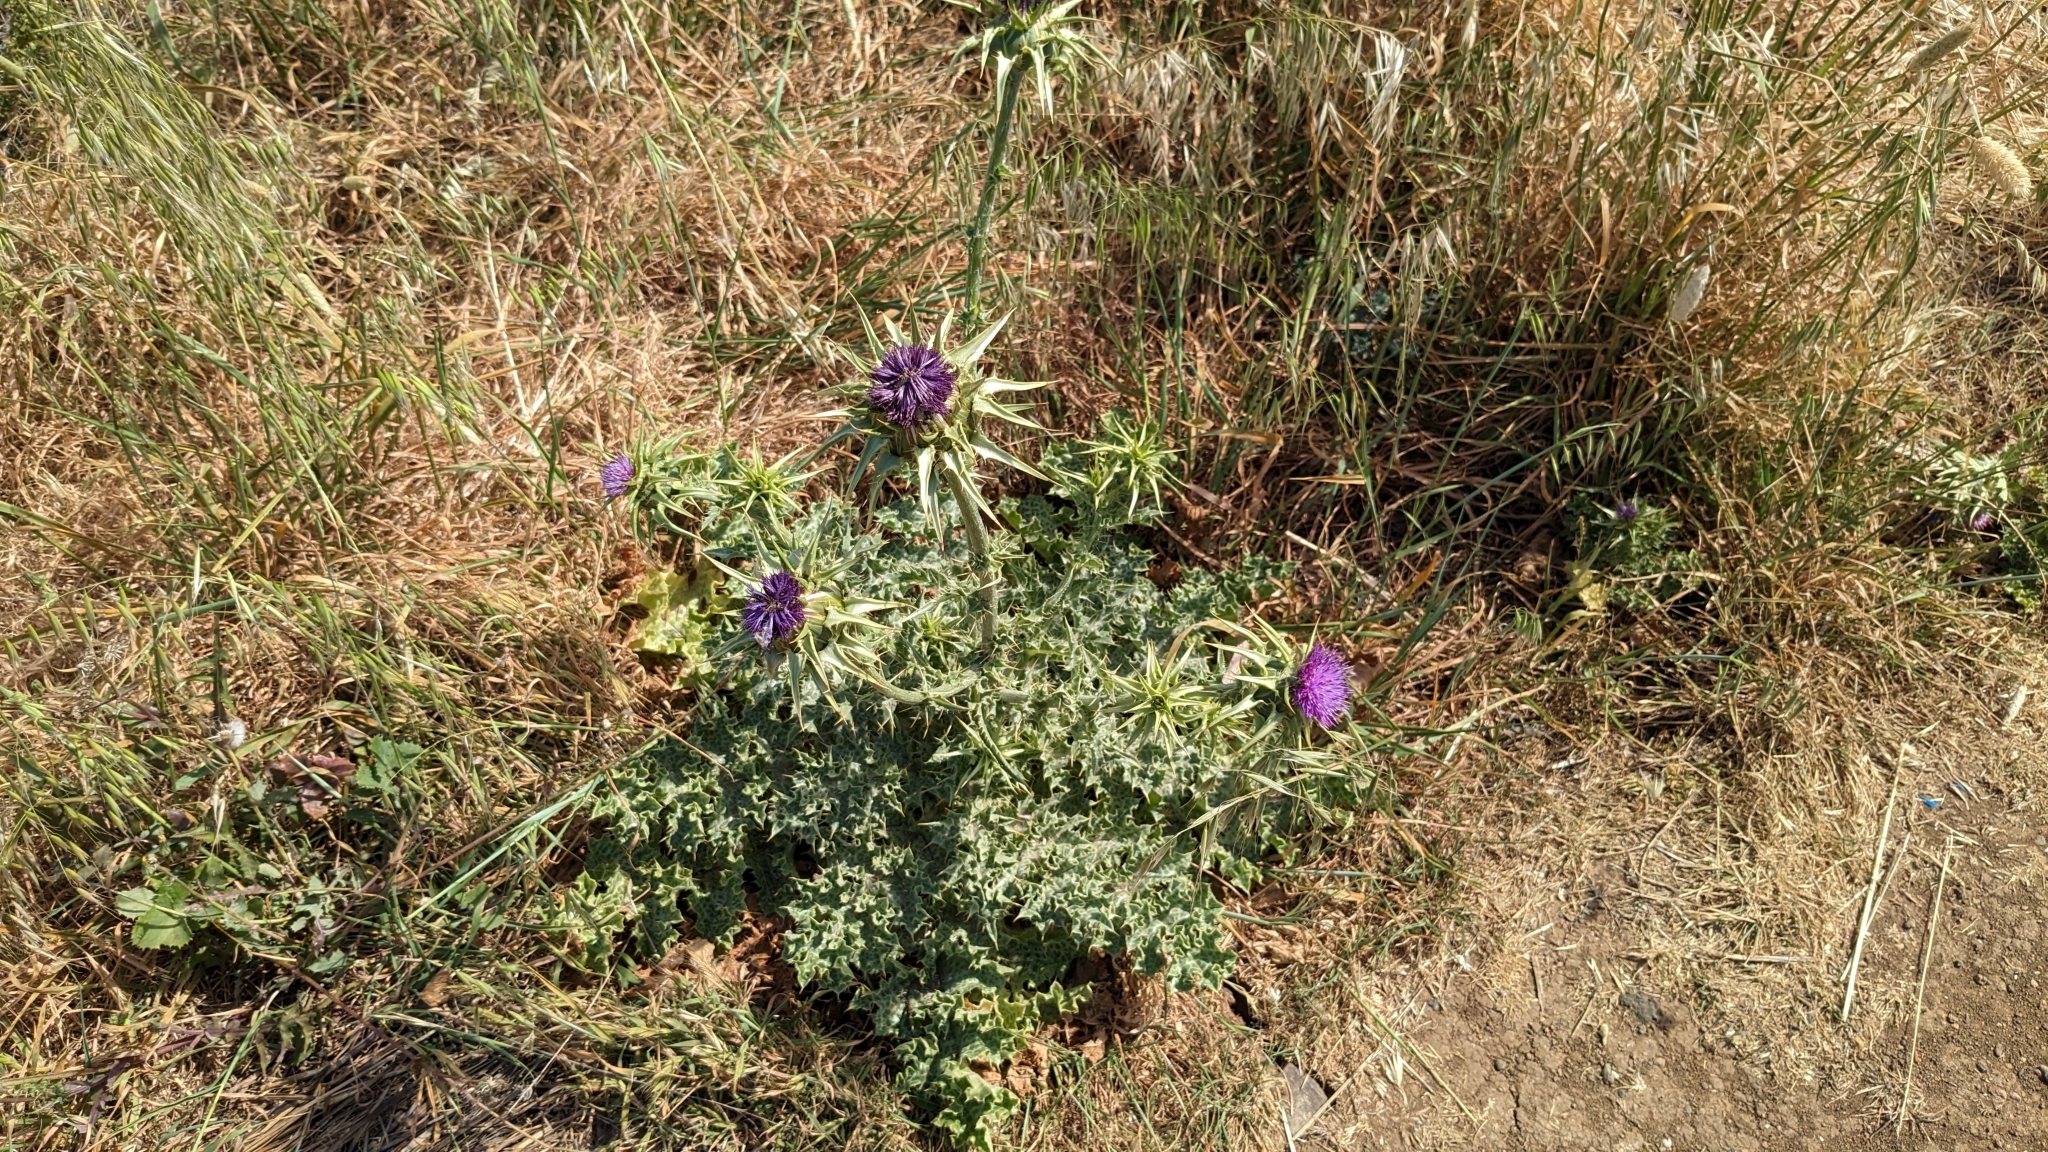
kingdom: Plantae
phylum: Tracheophyta
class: Magnoliopsida
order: Asterales
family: Asteraceae
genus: Silybum
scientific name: Silybum marianum
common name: Milk thistle
